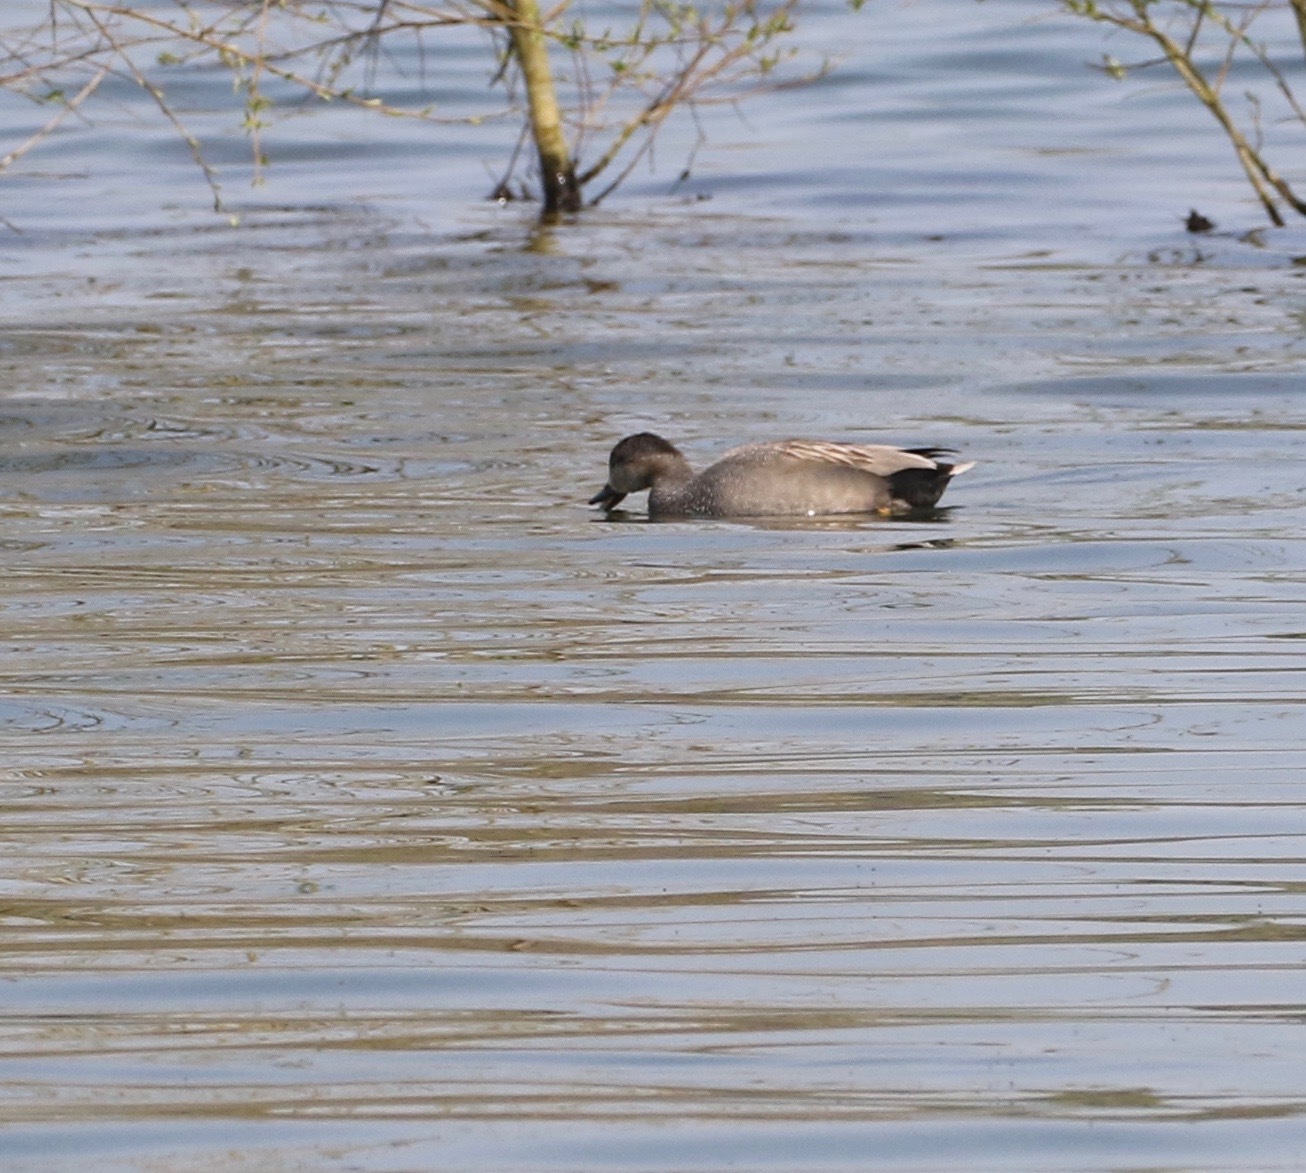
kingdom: Animalia
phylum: Chordata
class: Aves
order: Anseriformes
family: Anatidae
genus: Mareca
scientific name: Mareca strepera
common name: Gadwall
